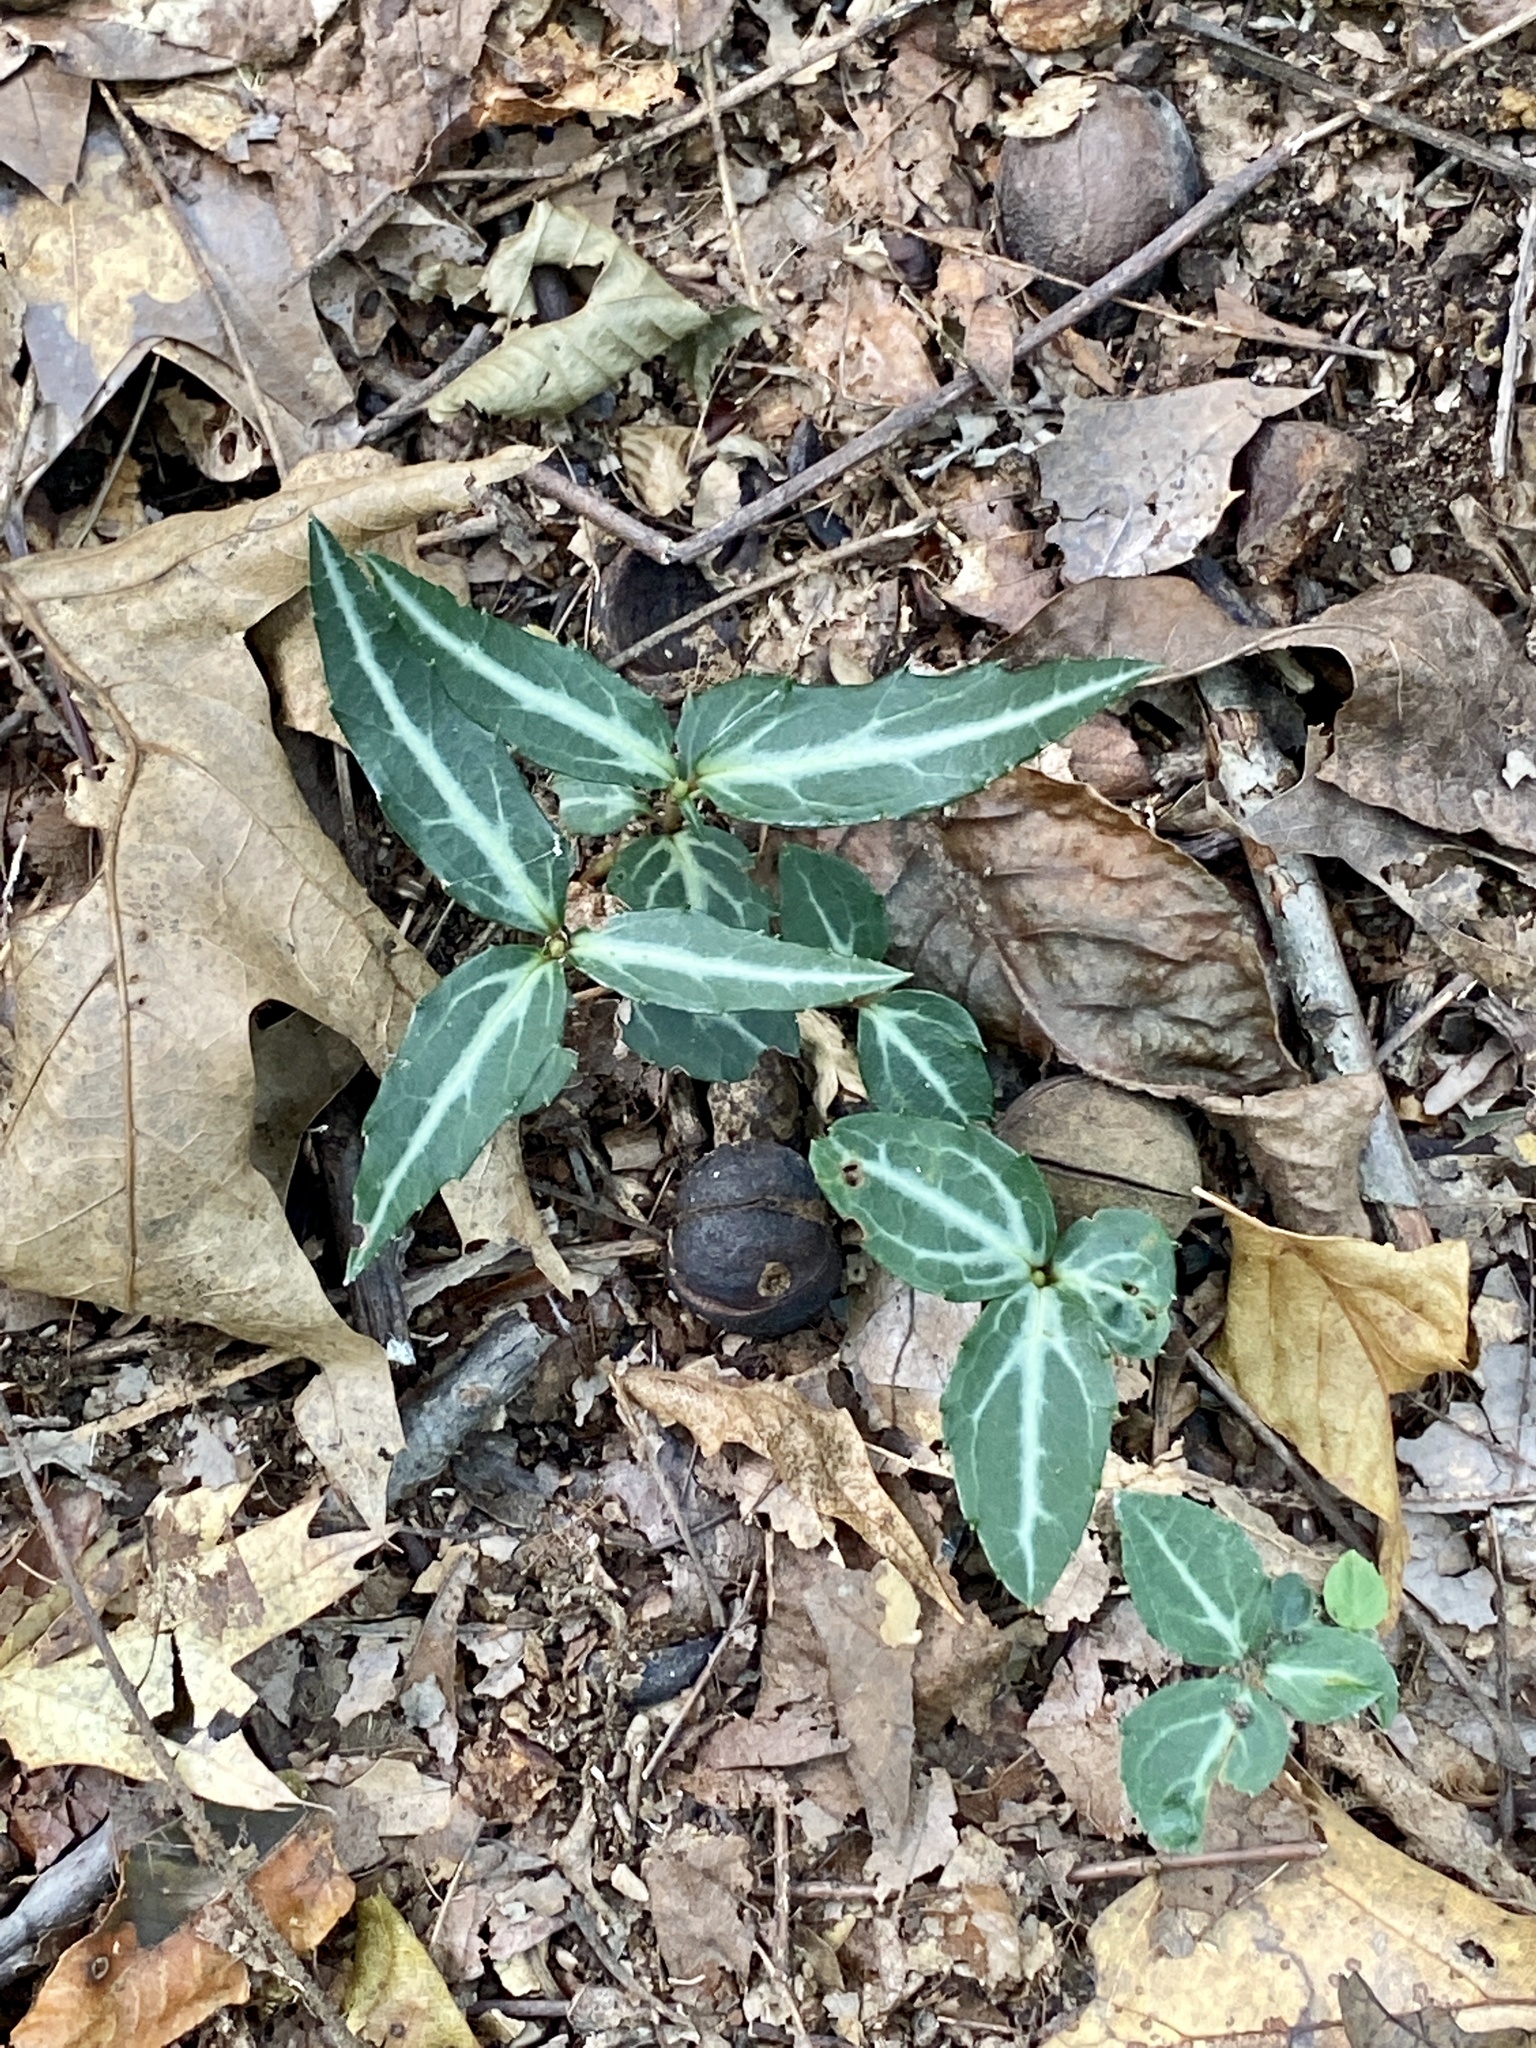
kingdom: Plantae
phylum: Tracheophyta
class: Magnoliopsida
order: Ericales
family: Ericaceae
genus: Chimaphila
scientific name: Chimaphila maculata
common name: Spotted pipsissewa
